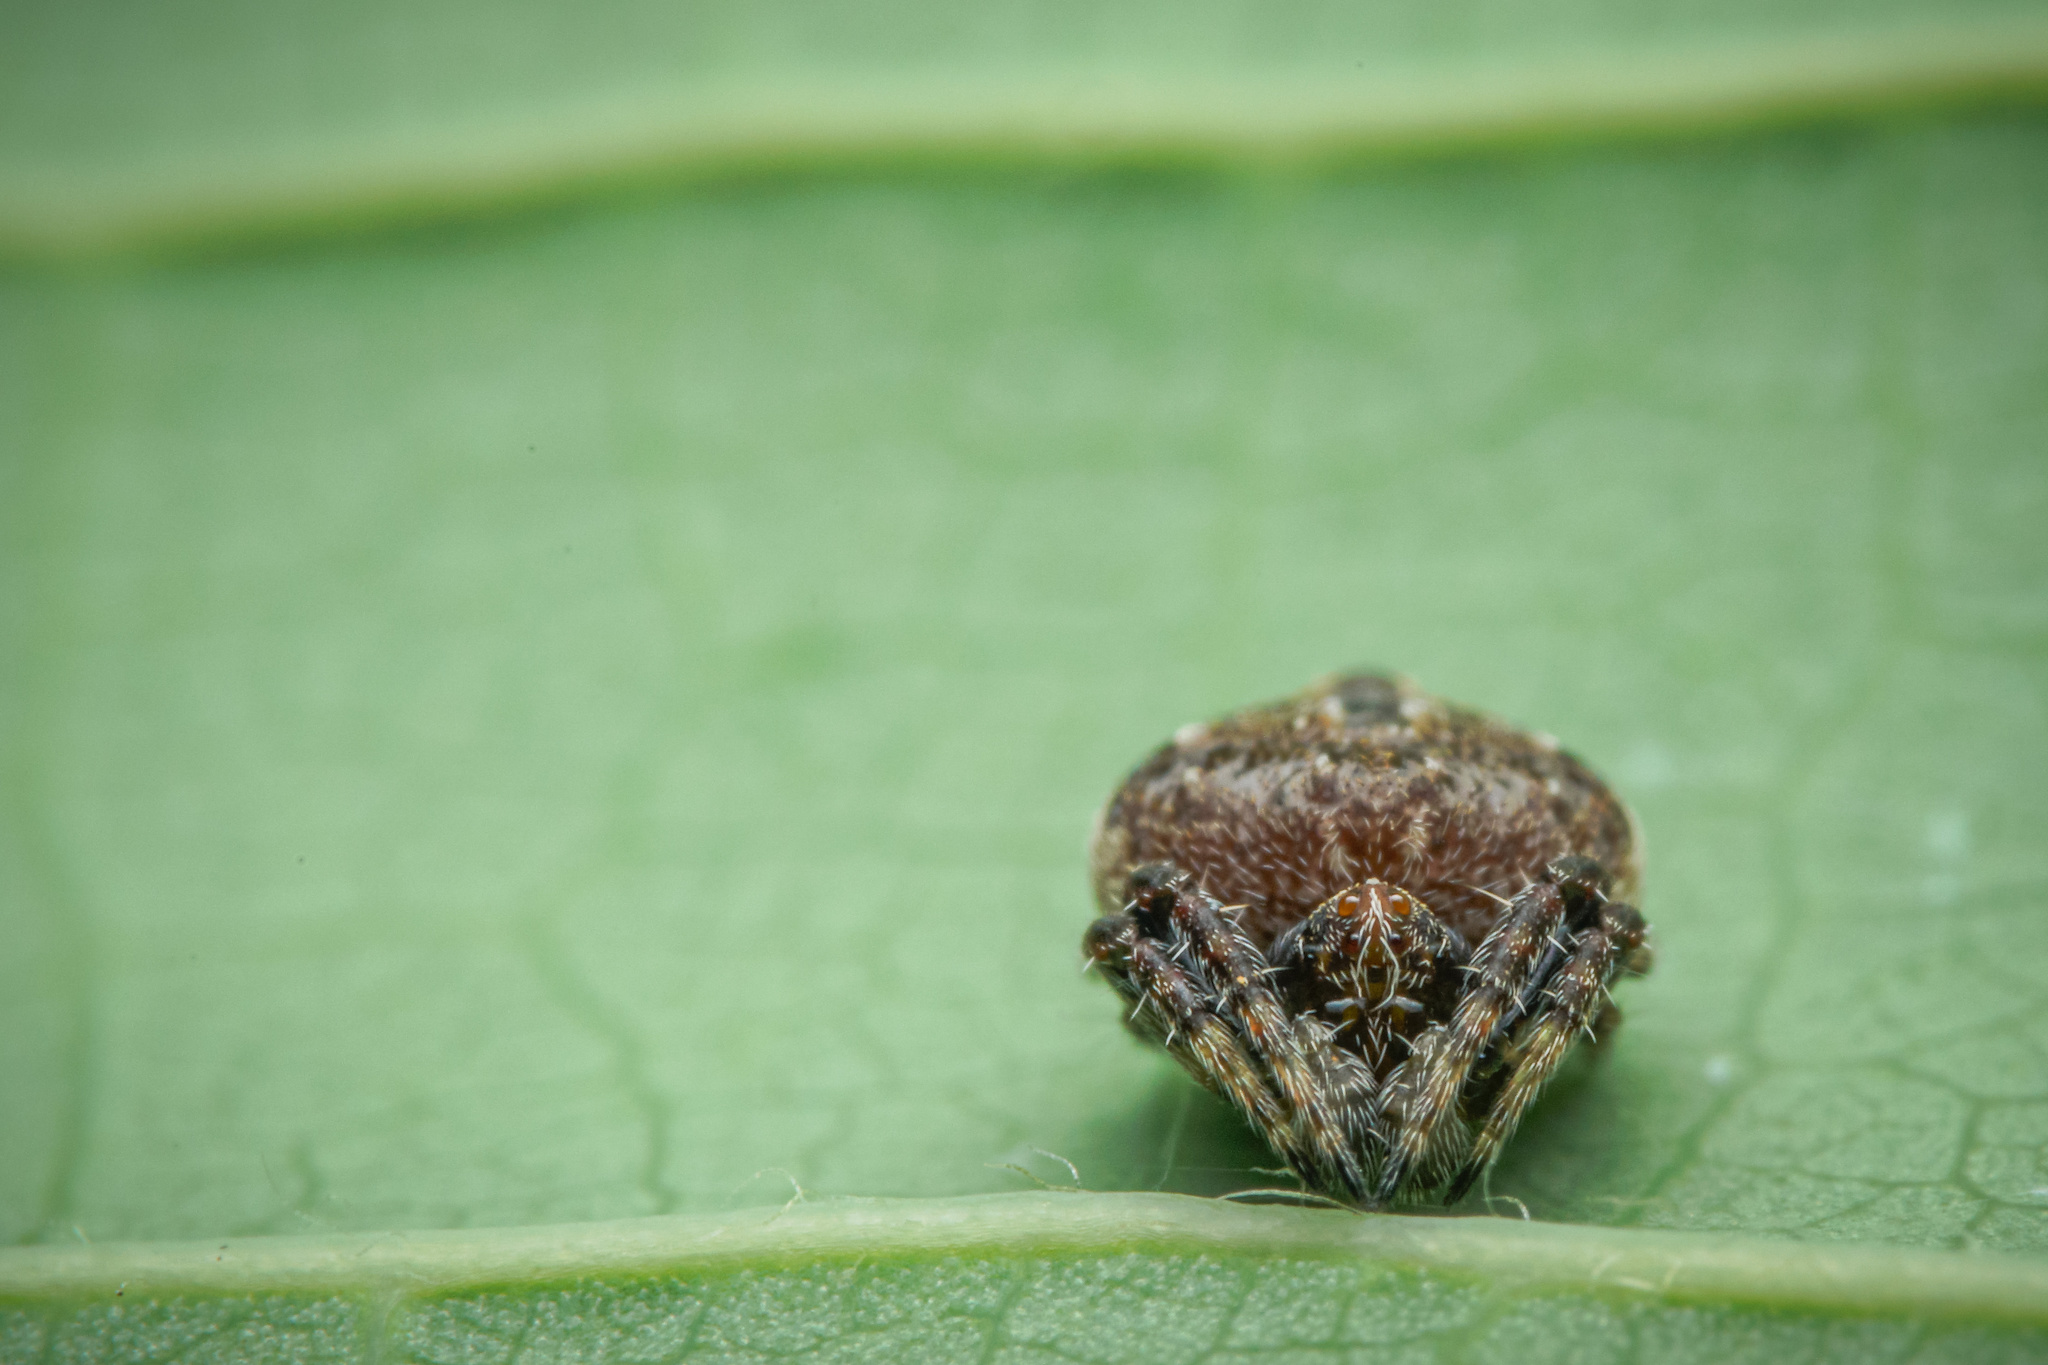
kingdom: Animalia
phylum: Arthropoda
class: Arachnida
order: Araneae
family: Araneidae
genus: Eriovixia
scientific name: Eriovixia excelsa
